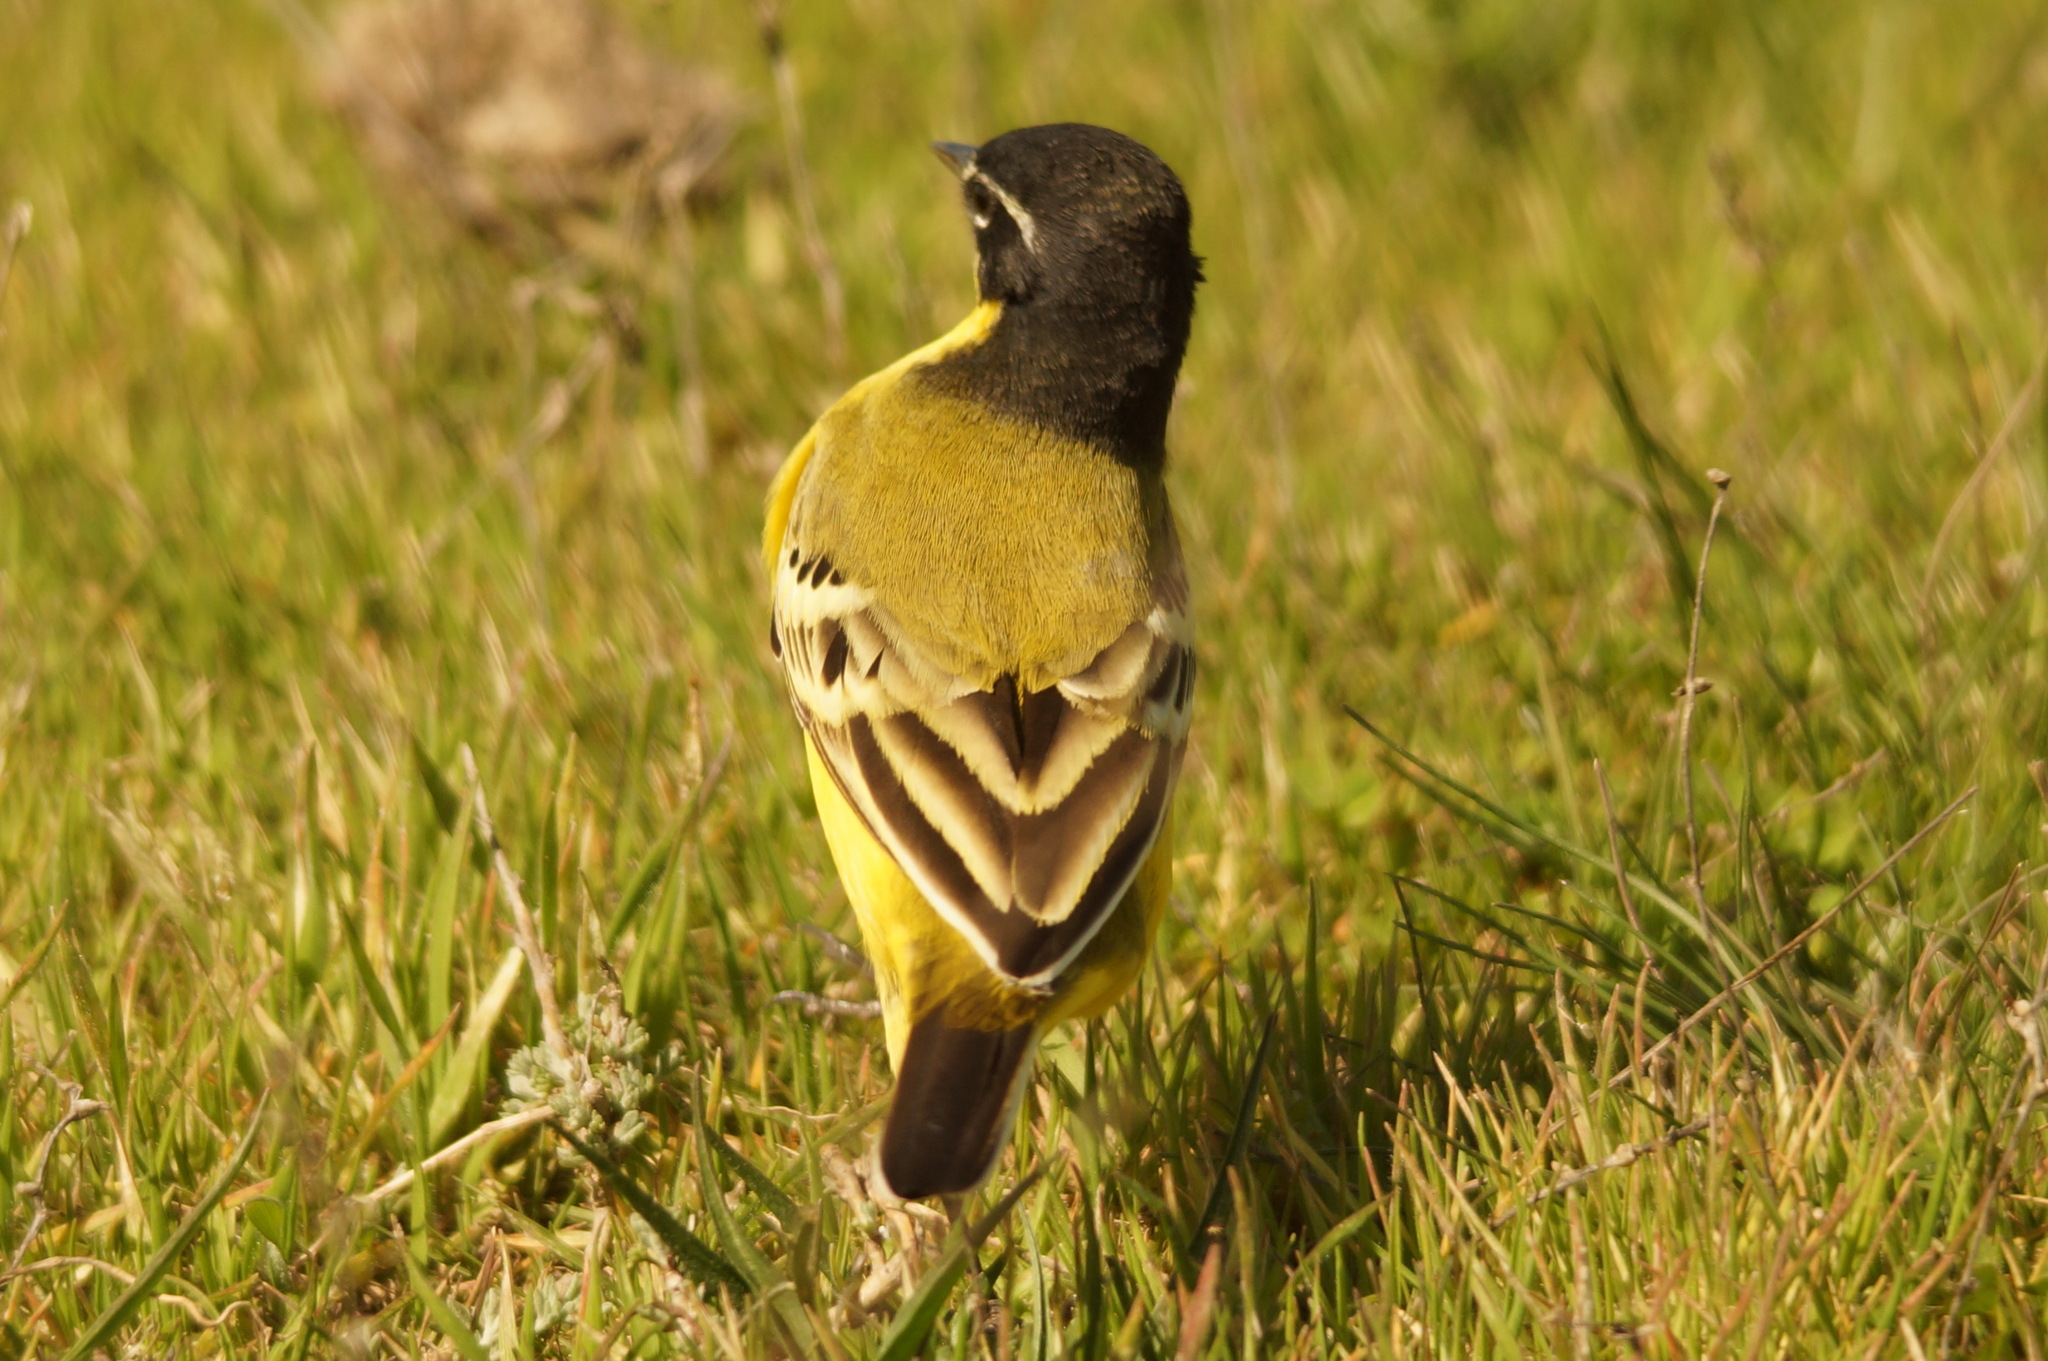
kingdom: Animalia
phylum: Chordata
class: Aves
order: Passeriformes
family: Motacillidae
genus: Motacilla
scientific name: Motacilla
